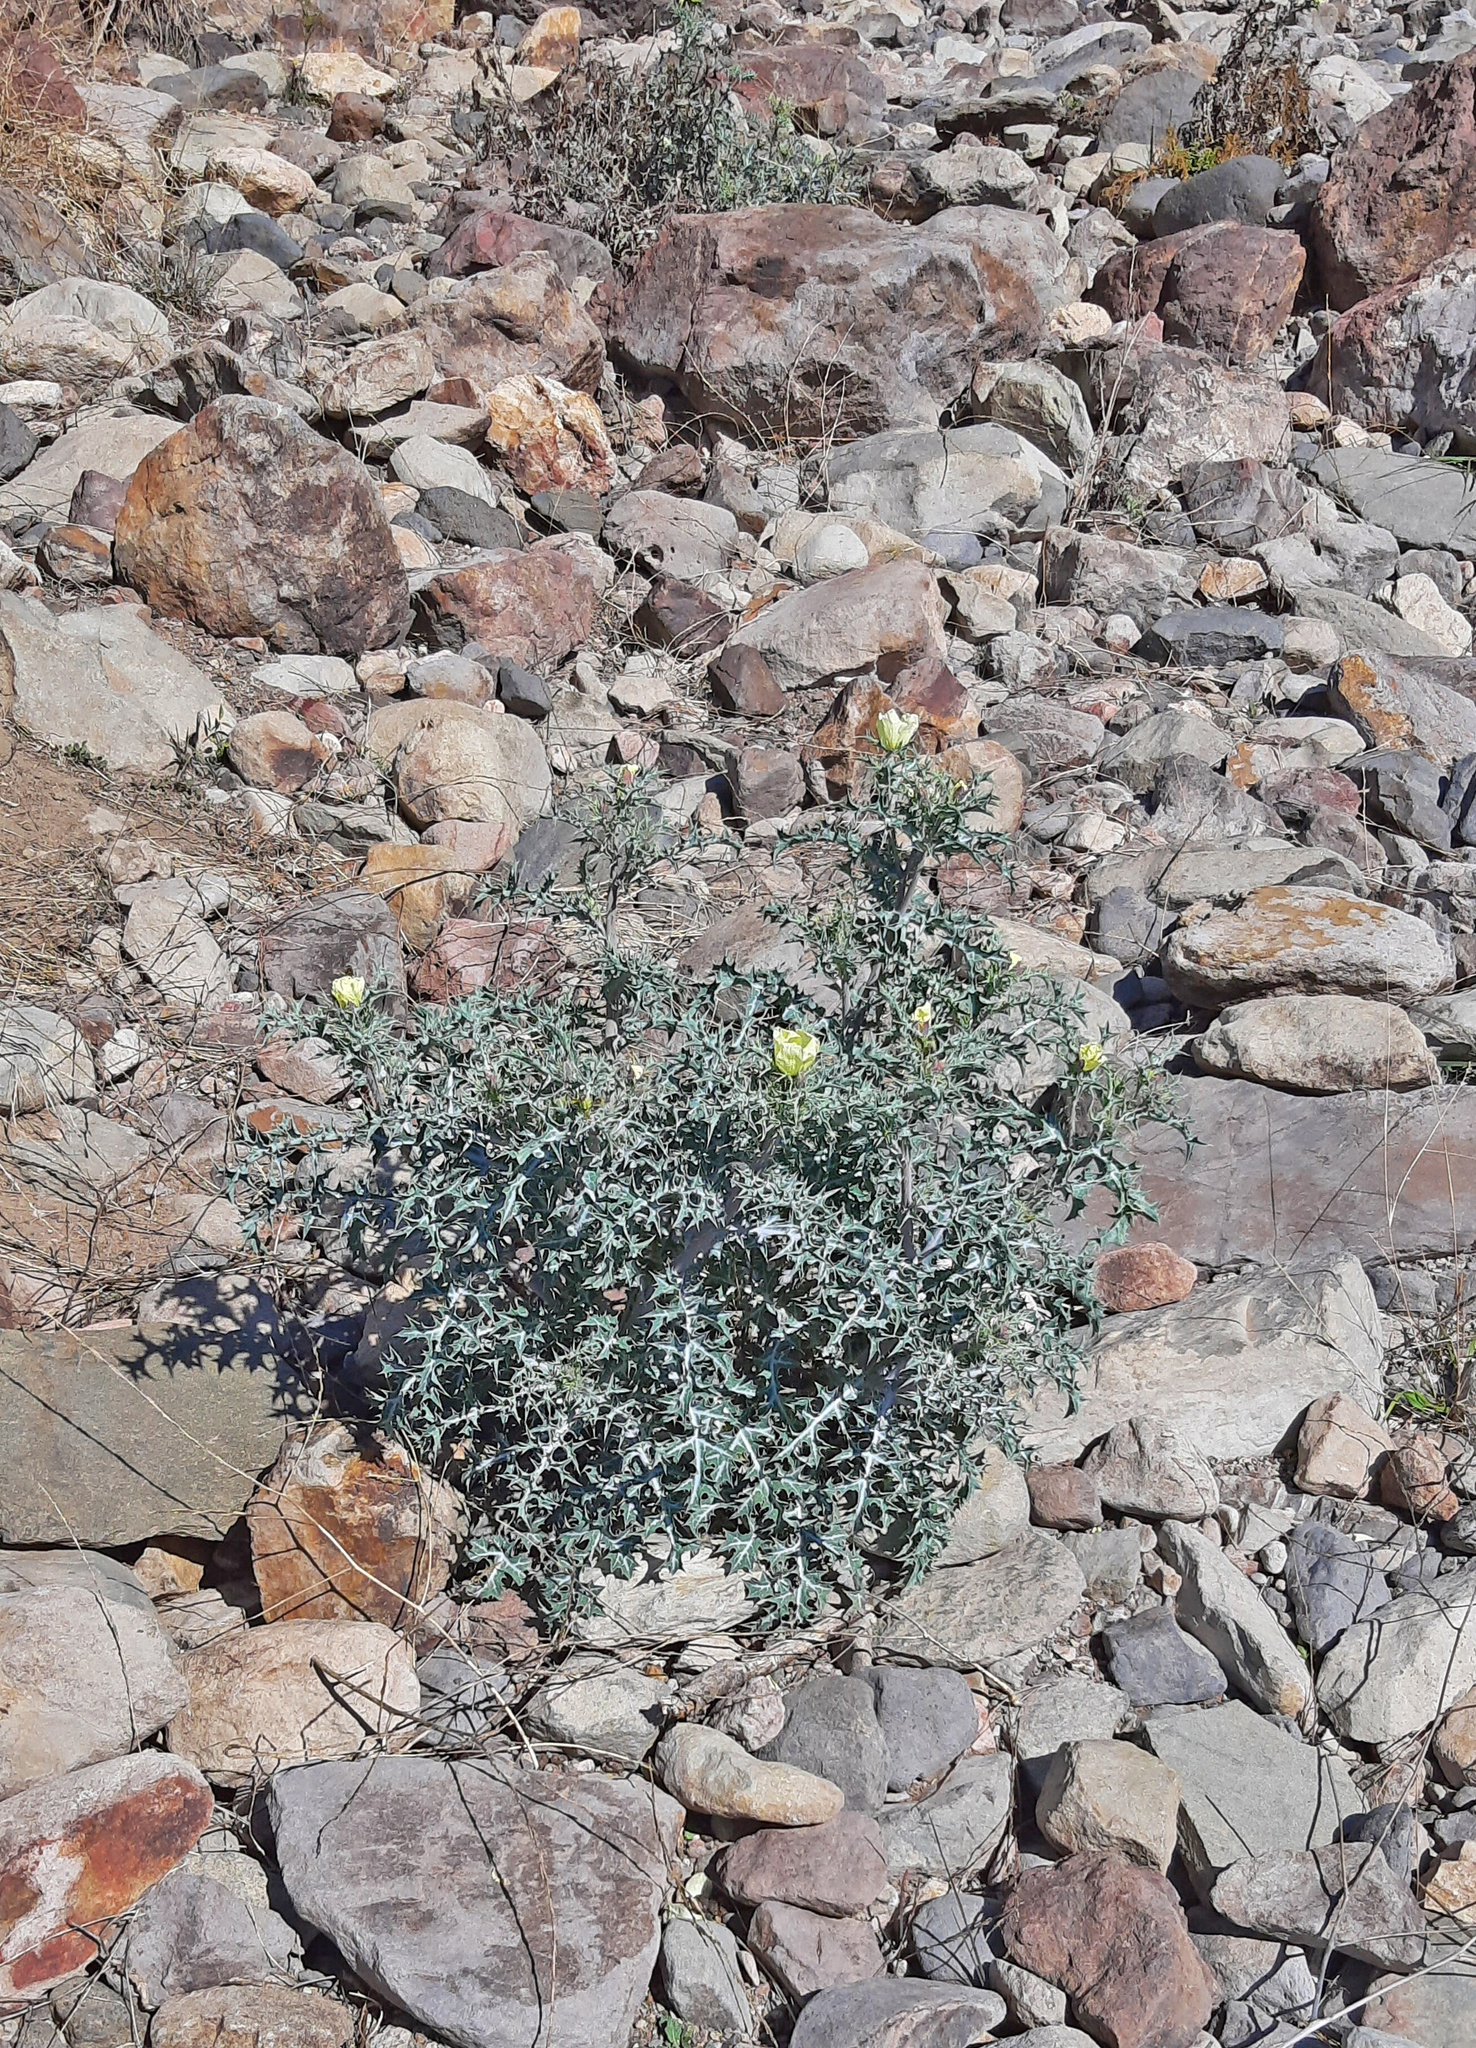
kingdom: Plantae
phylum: Tracheophyta
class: Magnoliopsida
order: Ranunculales
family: Papaveraceae
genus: Argemone
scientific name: Argemone ochroleuca
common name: White-flower mexican-poppy
